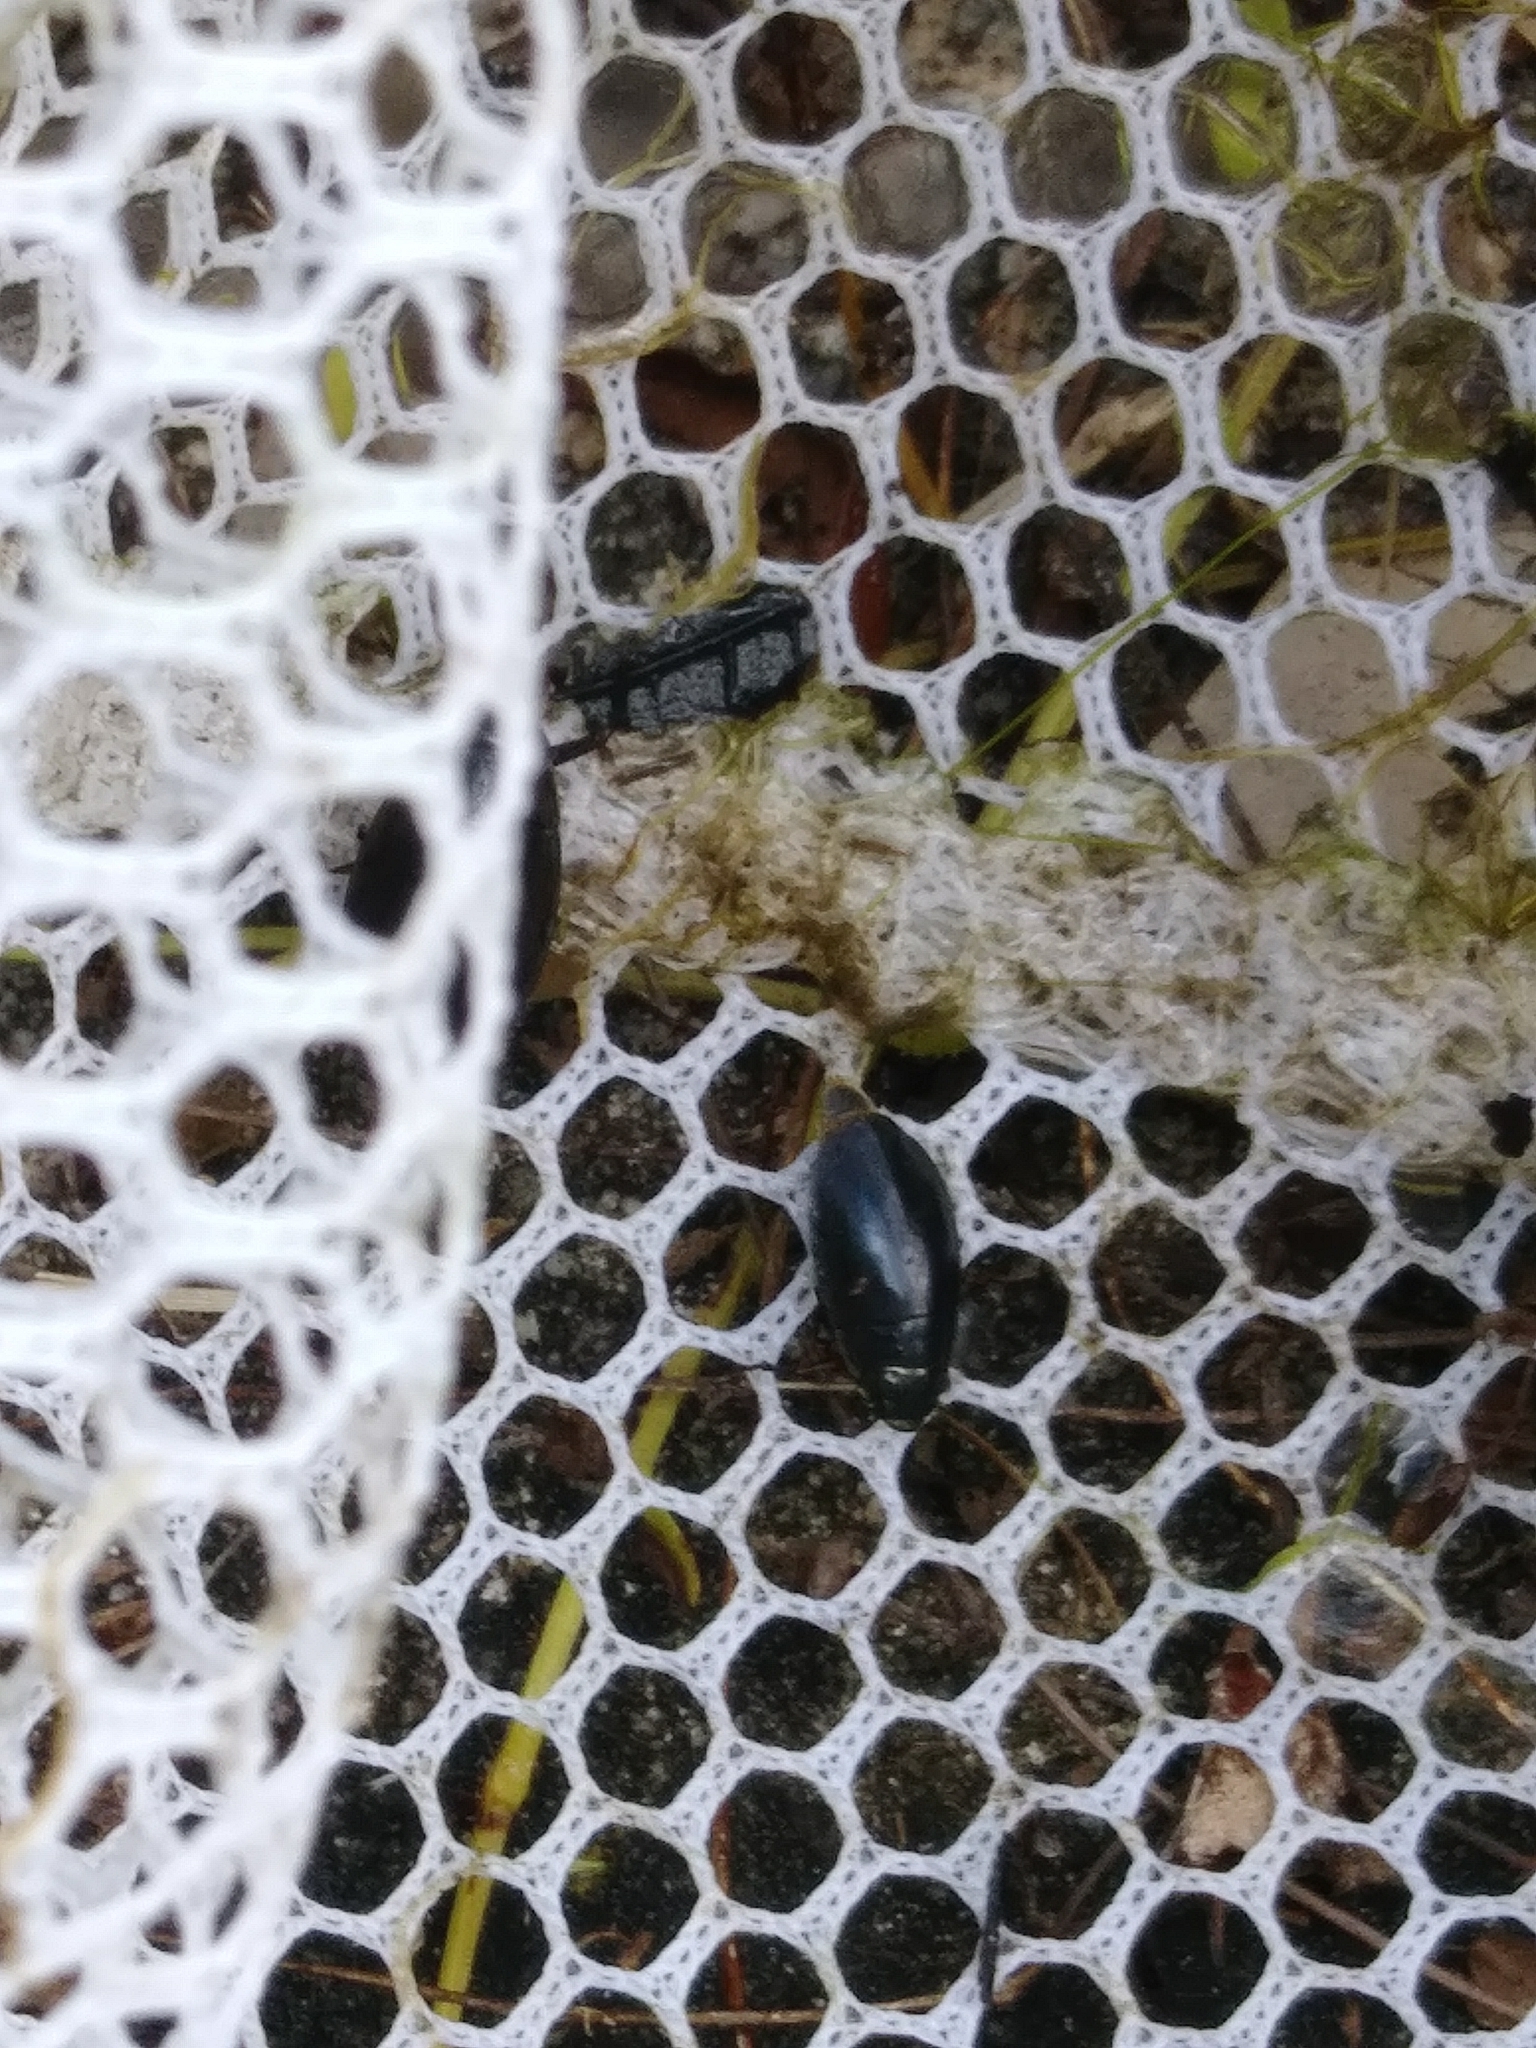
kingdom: Animalia
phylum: Arthropoda
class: Insecta
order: Coleoptera
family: Gyrinidae
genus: Dineutus
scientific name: Dineutus
